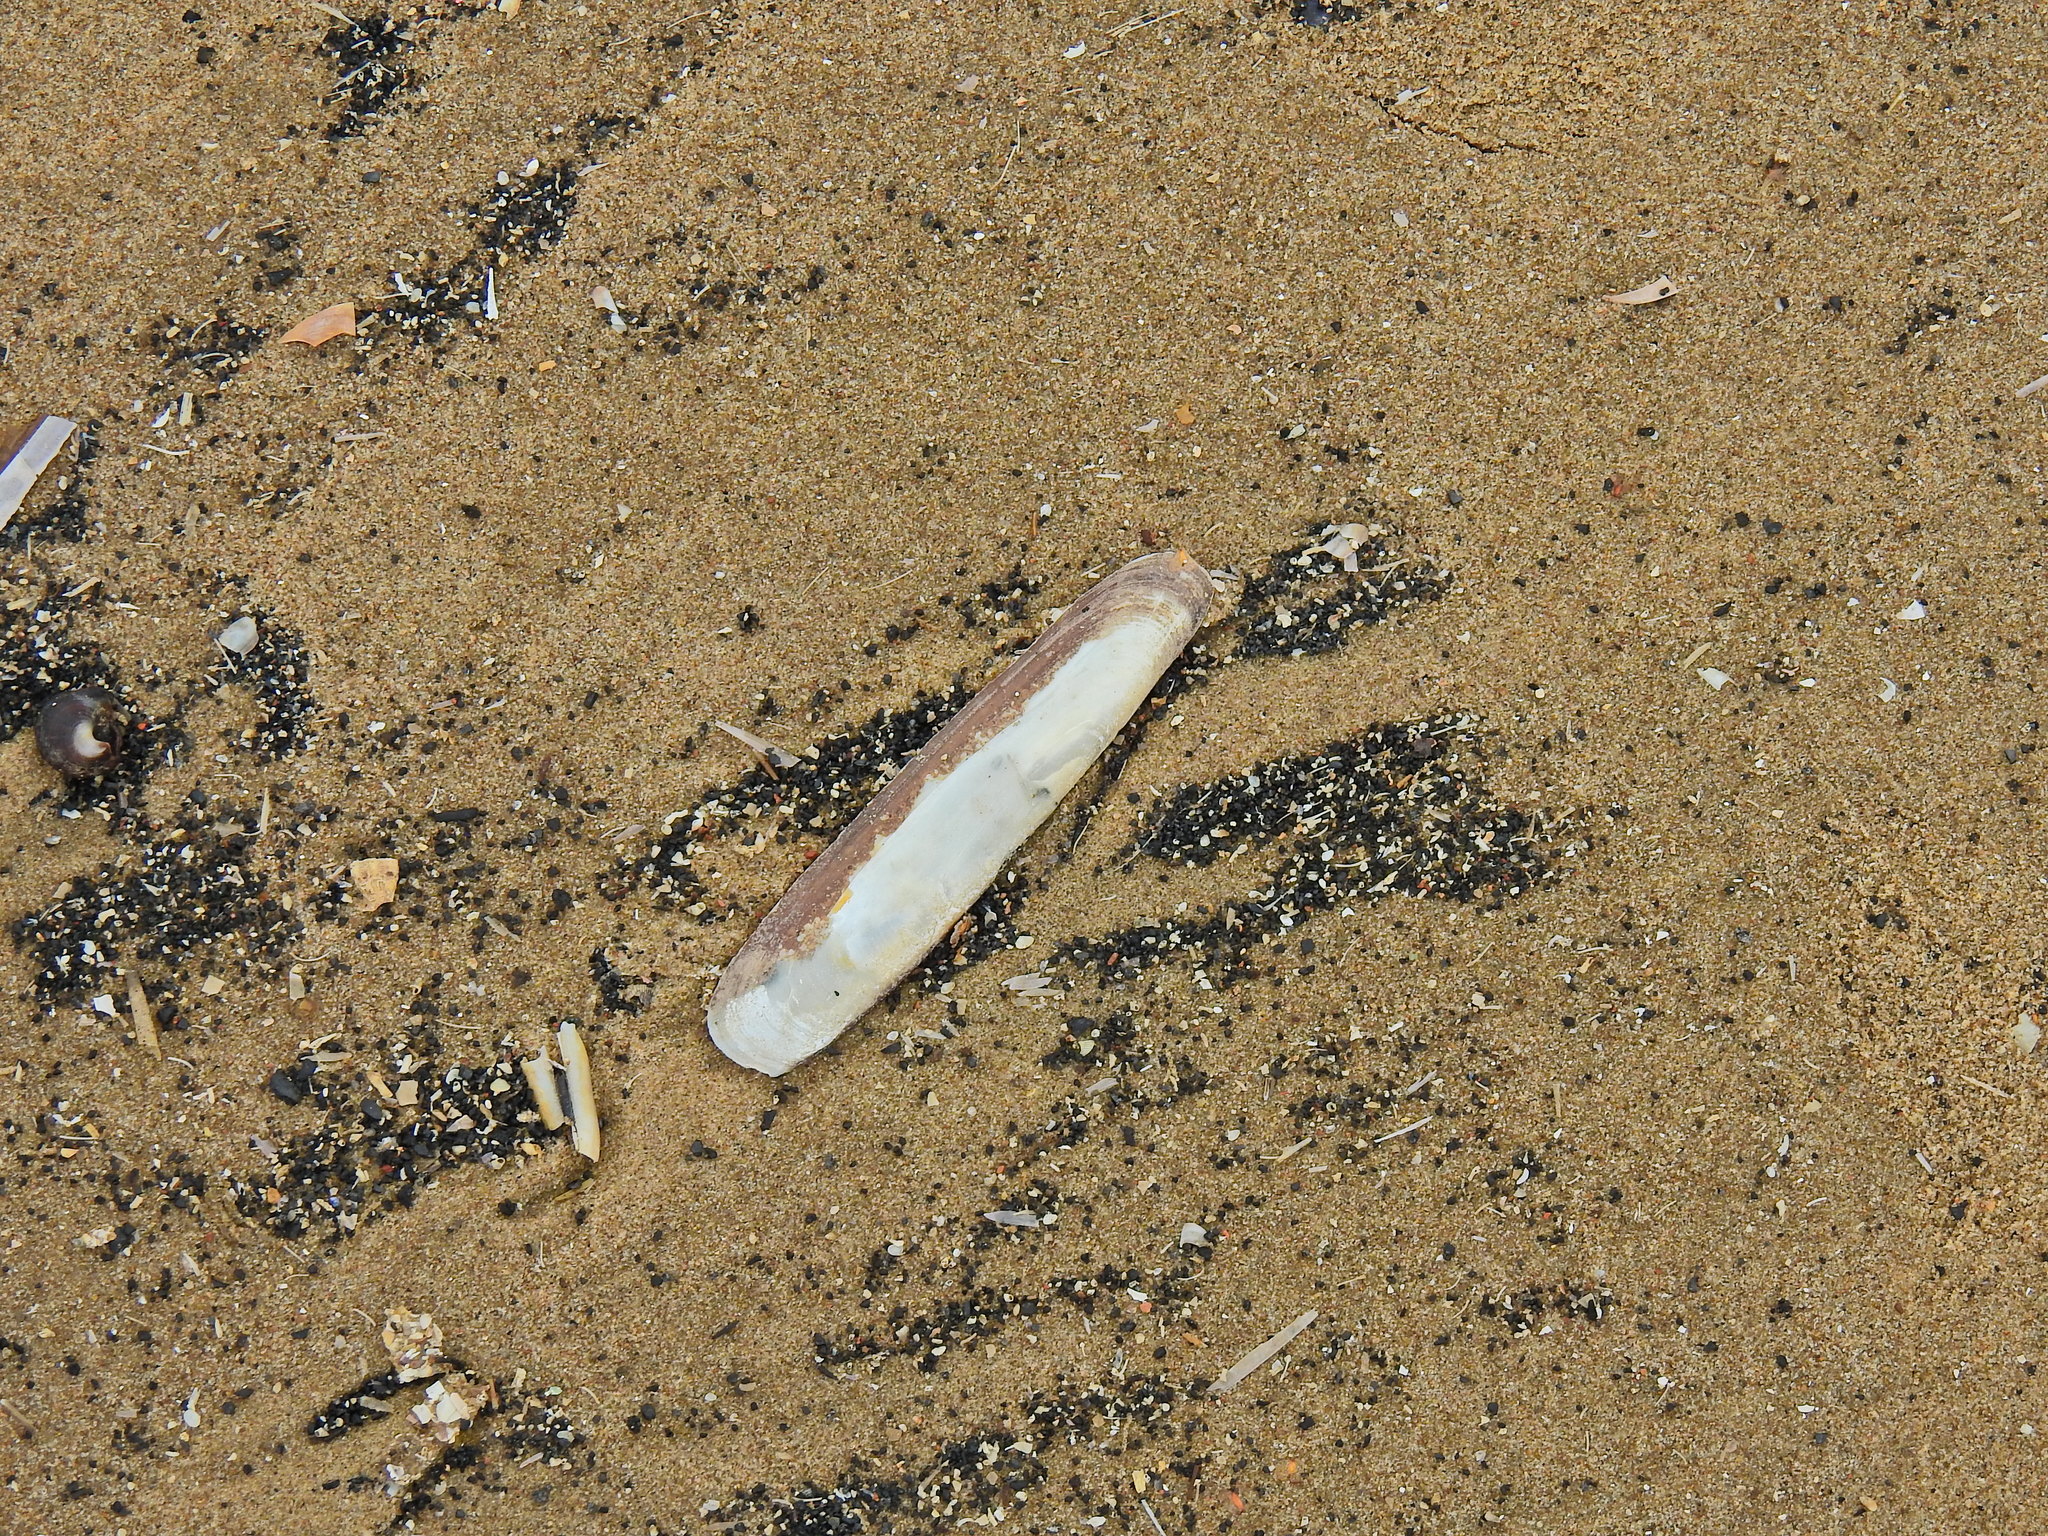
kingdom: Animalia
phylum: Mollusca
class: Bivalvia
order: Adapedonta
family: Pharidae
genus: Pharus
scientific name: Pharus legumen
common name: Bean razor clam
